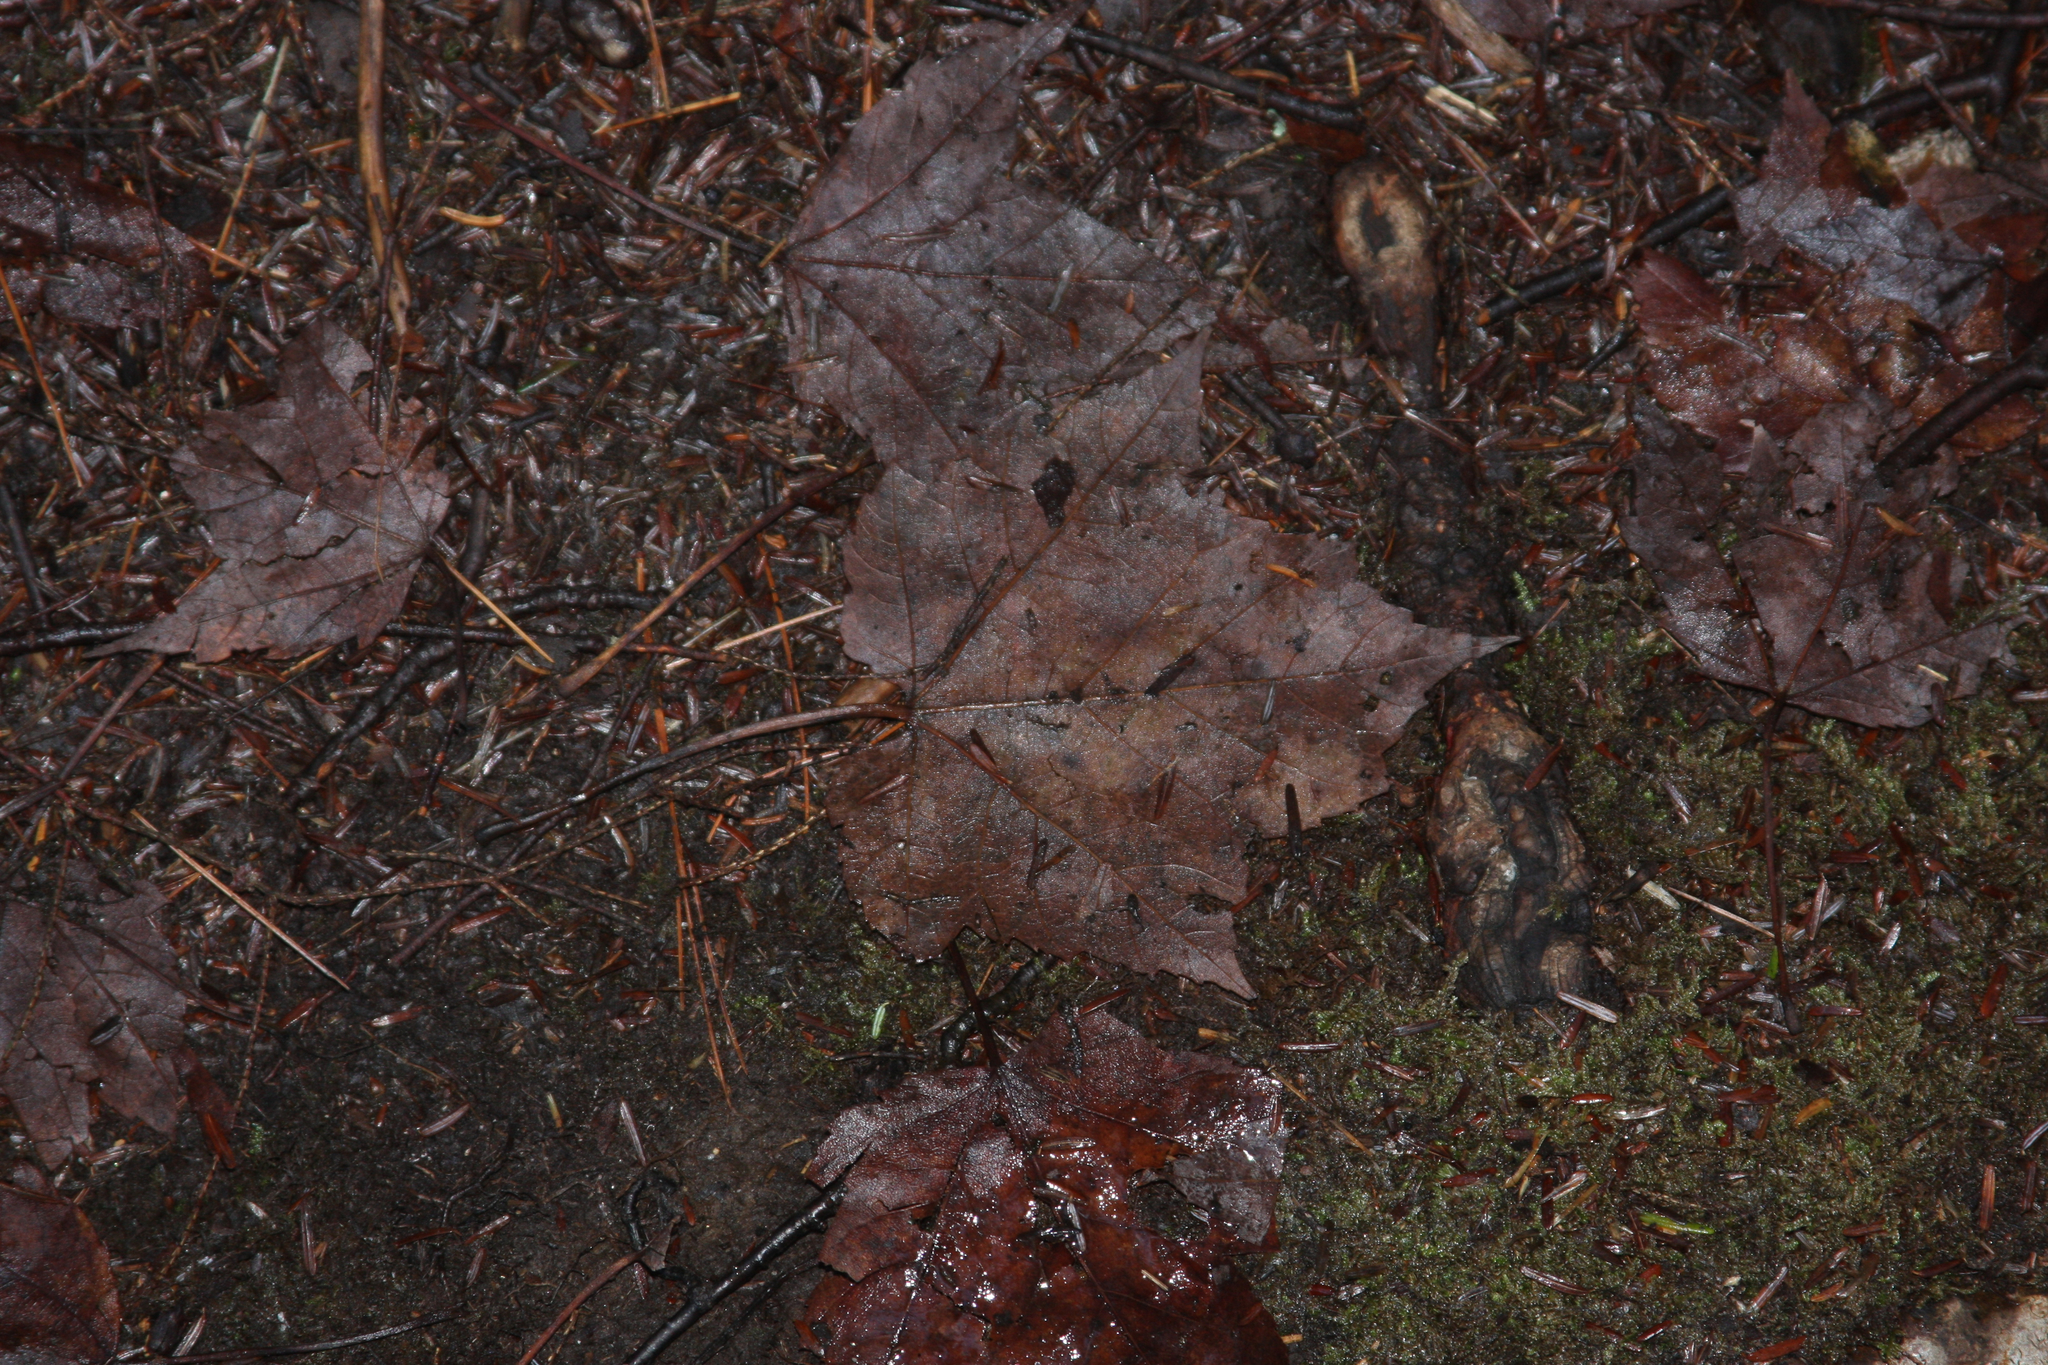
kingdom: Plantae
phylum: Tracheophyta
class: Magnoliopsida
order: Sapindales
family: Sapindaceae
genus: Acer
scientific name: Acer rubrum
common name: Red maple
